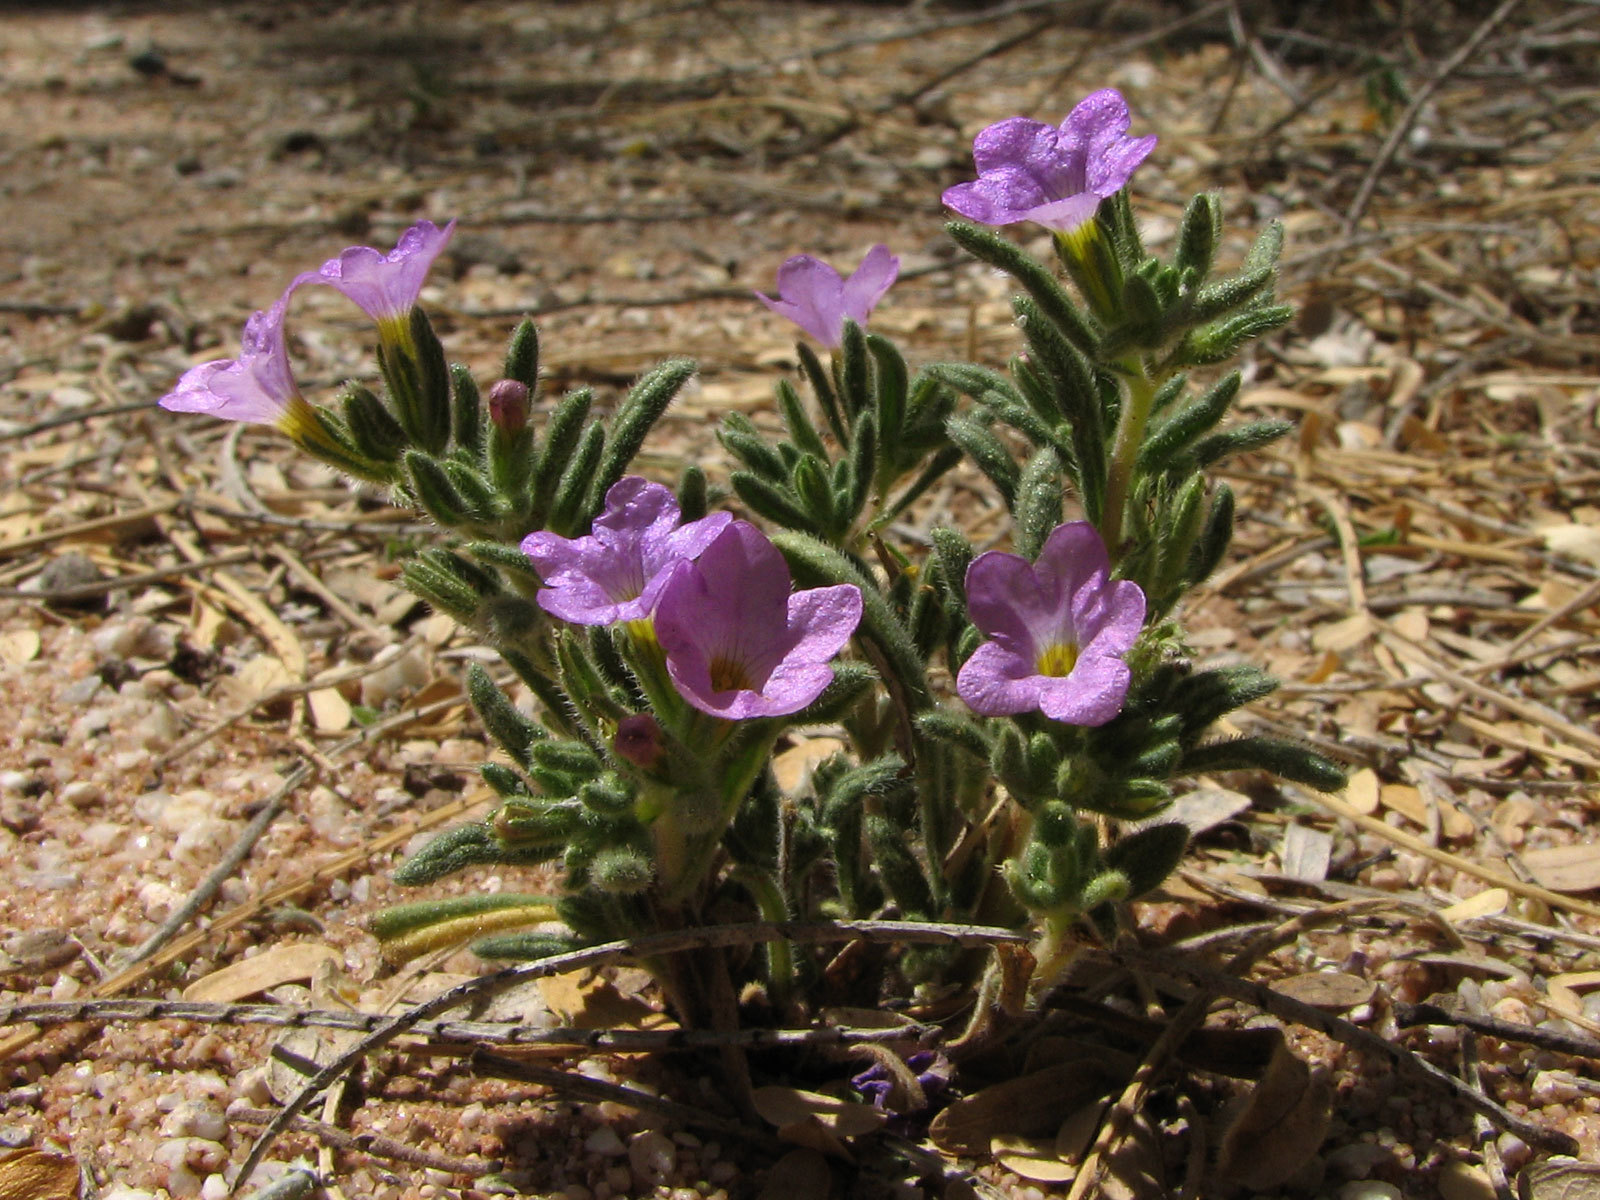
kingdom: Plantae
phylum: Tracheophyta
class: Magnoliopsida
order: Boraginales
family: Namaceae
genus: Nama
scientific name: Nama hispida
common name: Bristly nama
